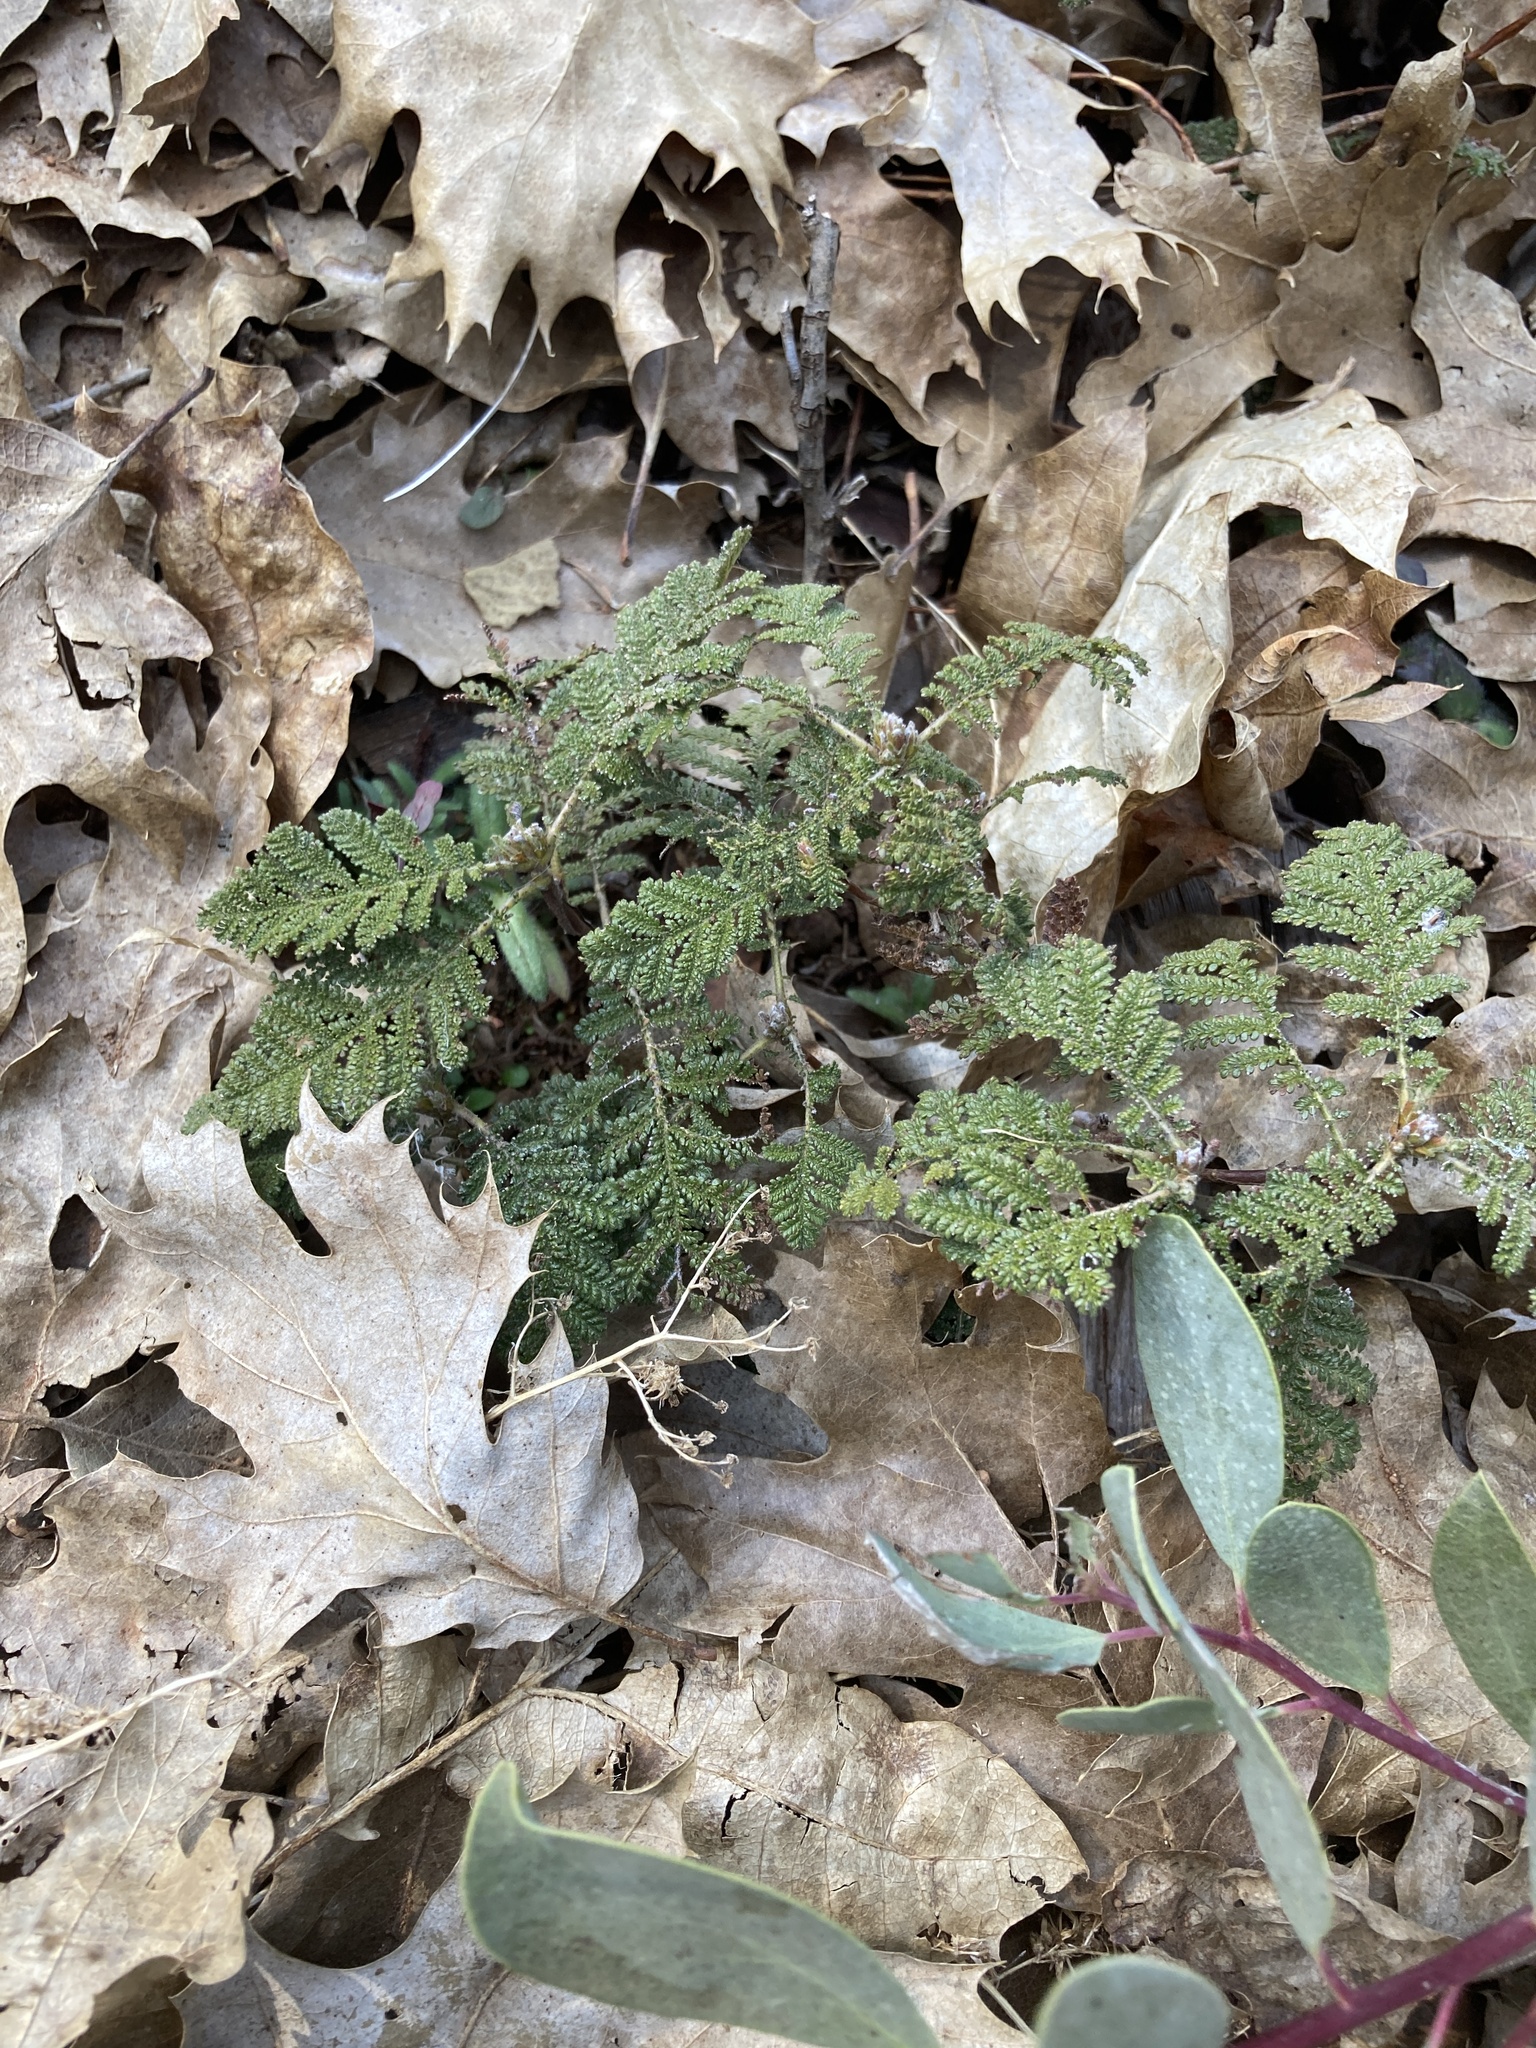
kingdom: Plantae
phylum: Tracheophyta
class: Magnoliopsida
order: Rosales
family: Rosaceae
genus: Chamaebatia
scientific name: Chamaebatia foliolosa
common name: Mountain misery
